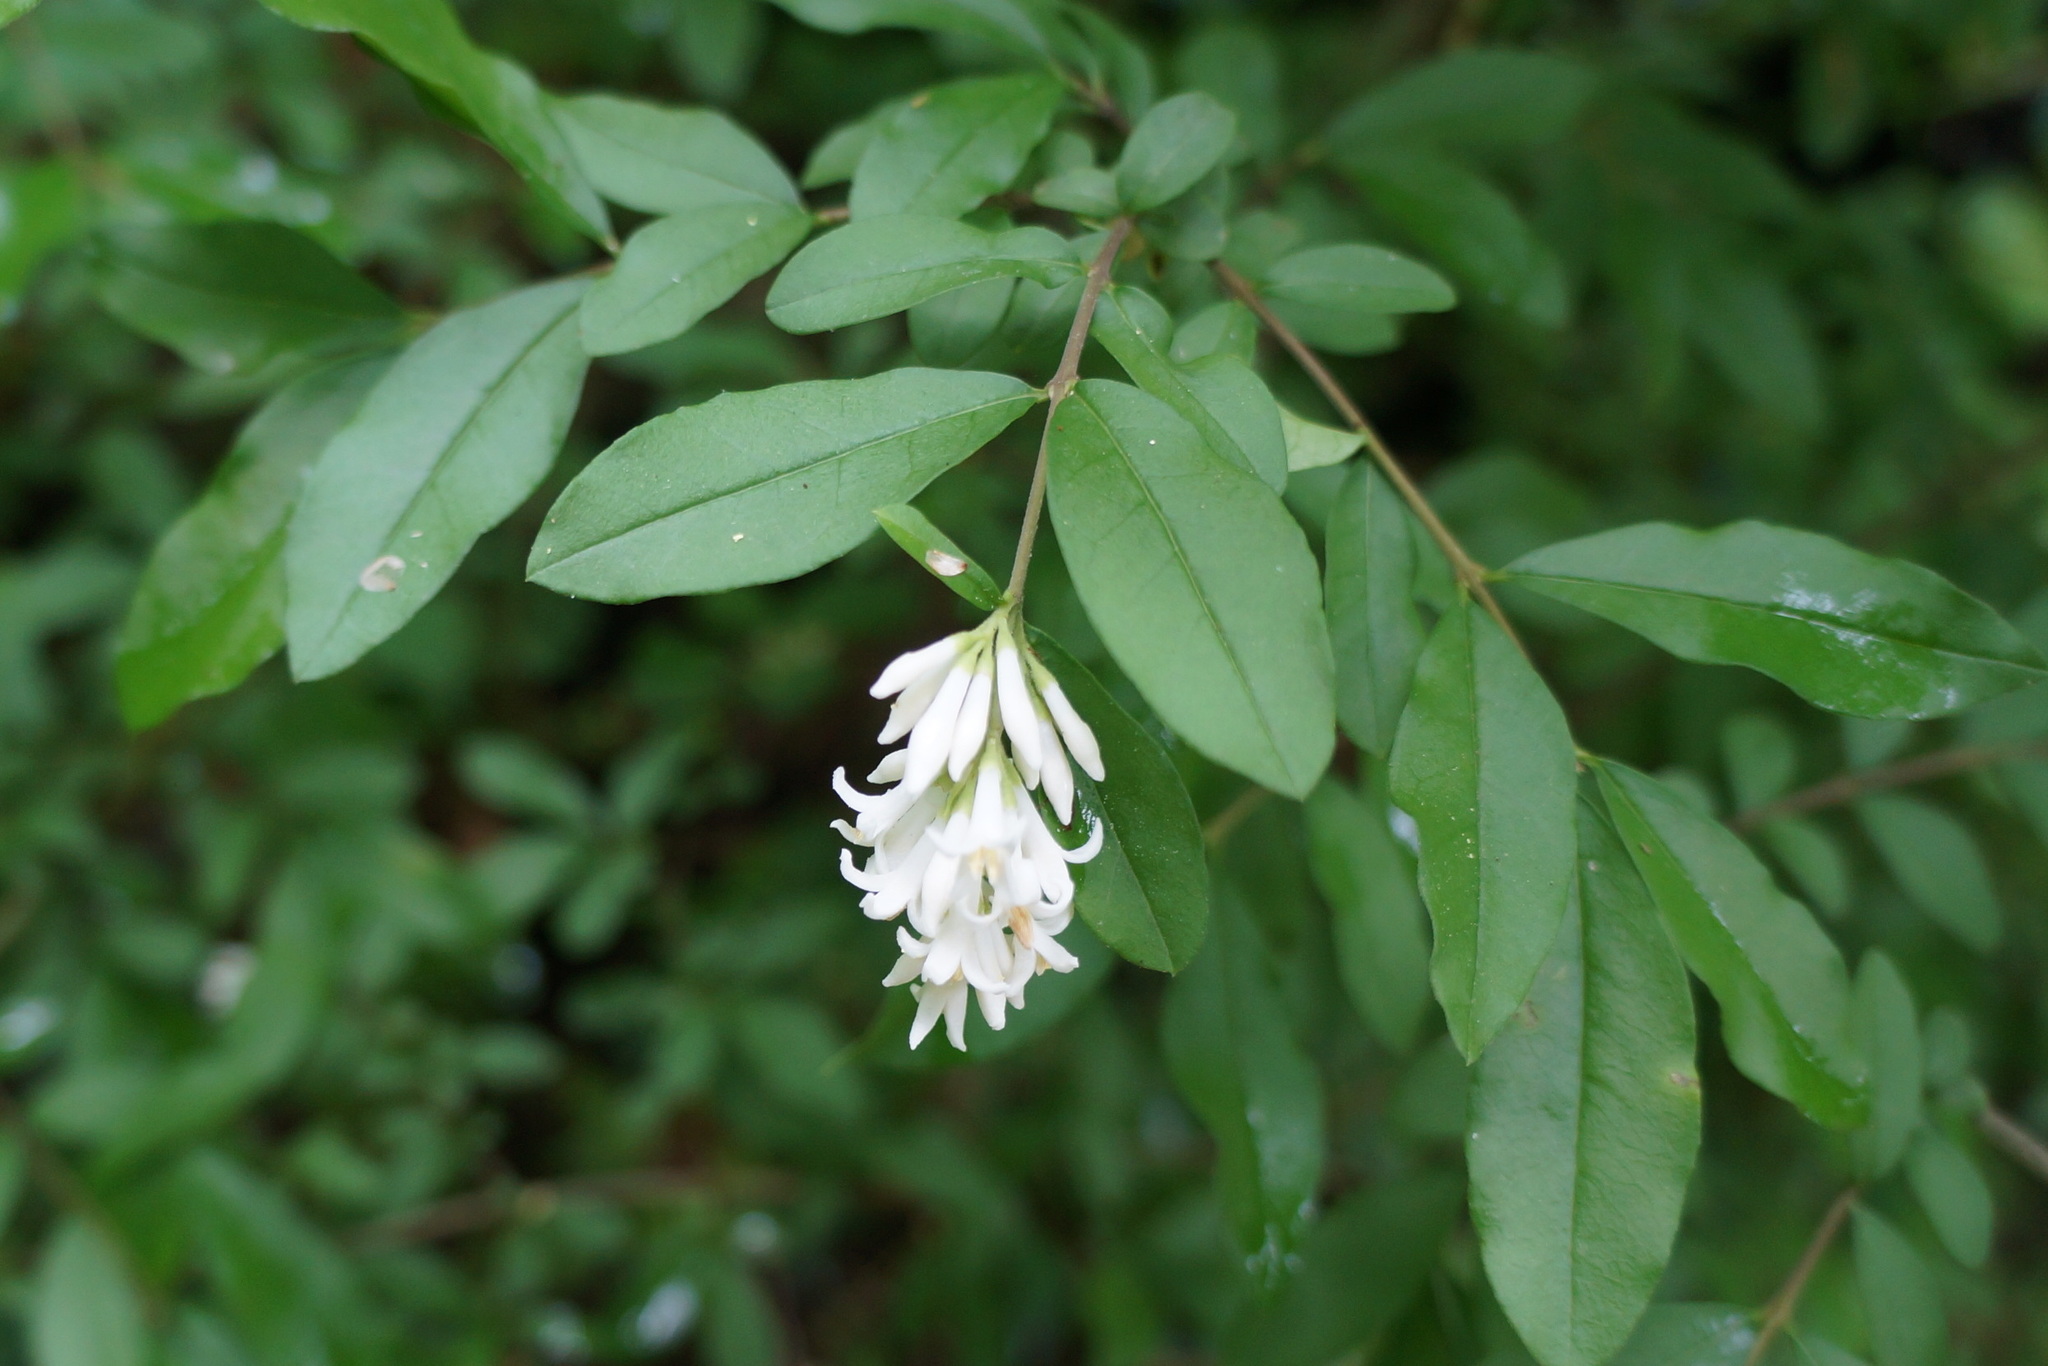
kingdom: Plantae
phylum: Tracheophyta
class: Magnoliopsida
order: Lamiales
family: Oleaceae
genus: Ligustrum
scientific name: Ligustrum obtusifolium
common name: Border privet
